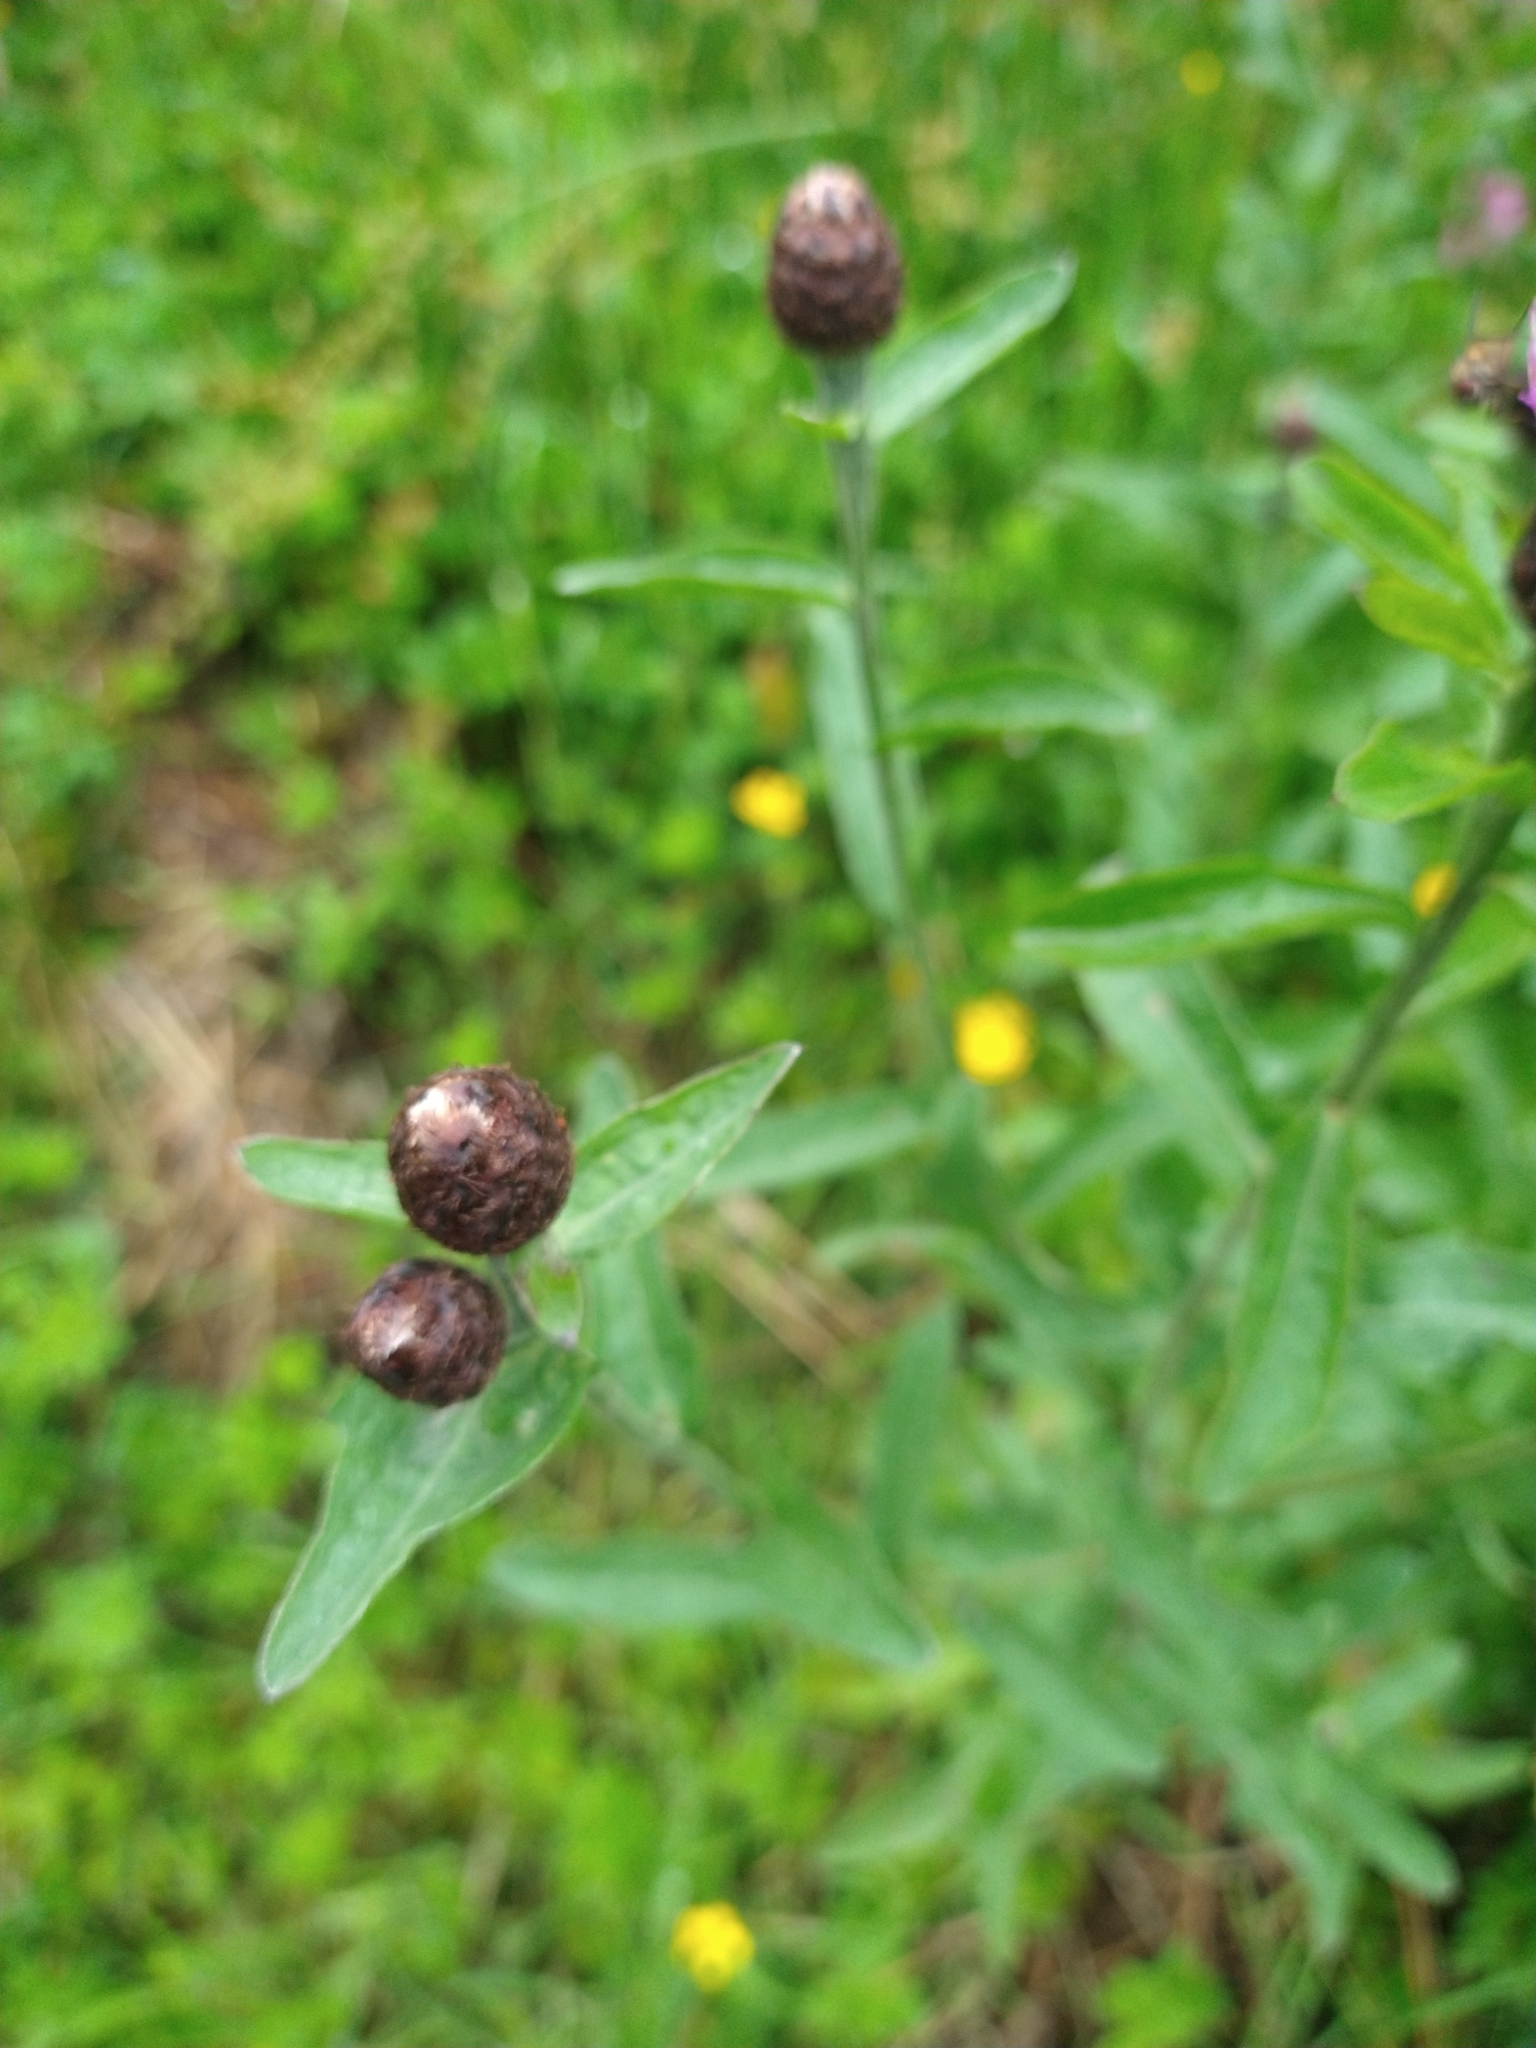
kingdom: Plantae
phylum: Tracheophyta
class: Magnoliopsida
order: Asterales
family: Asteraceae
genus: Centaurea
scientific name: Centaurea nigra
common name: Lesser knapweed
